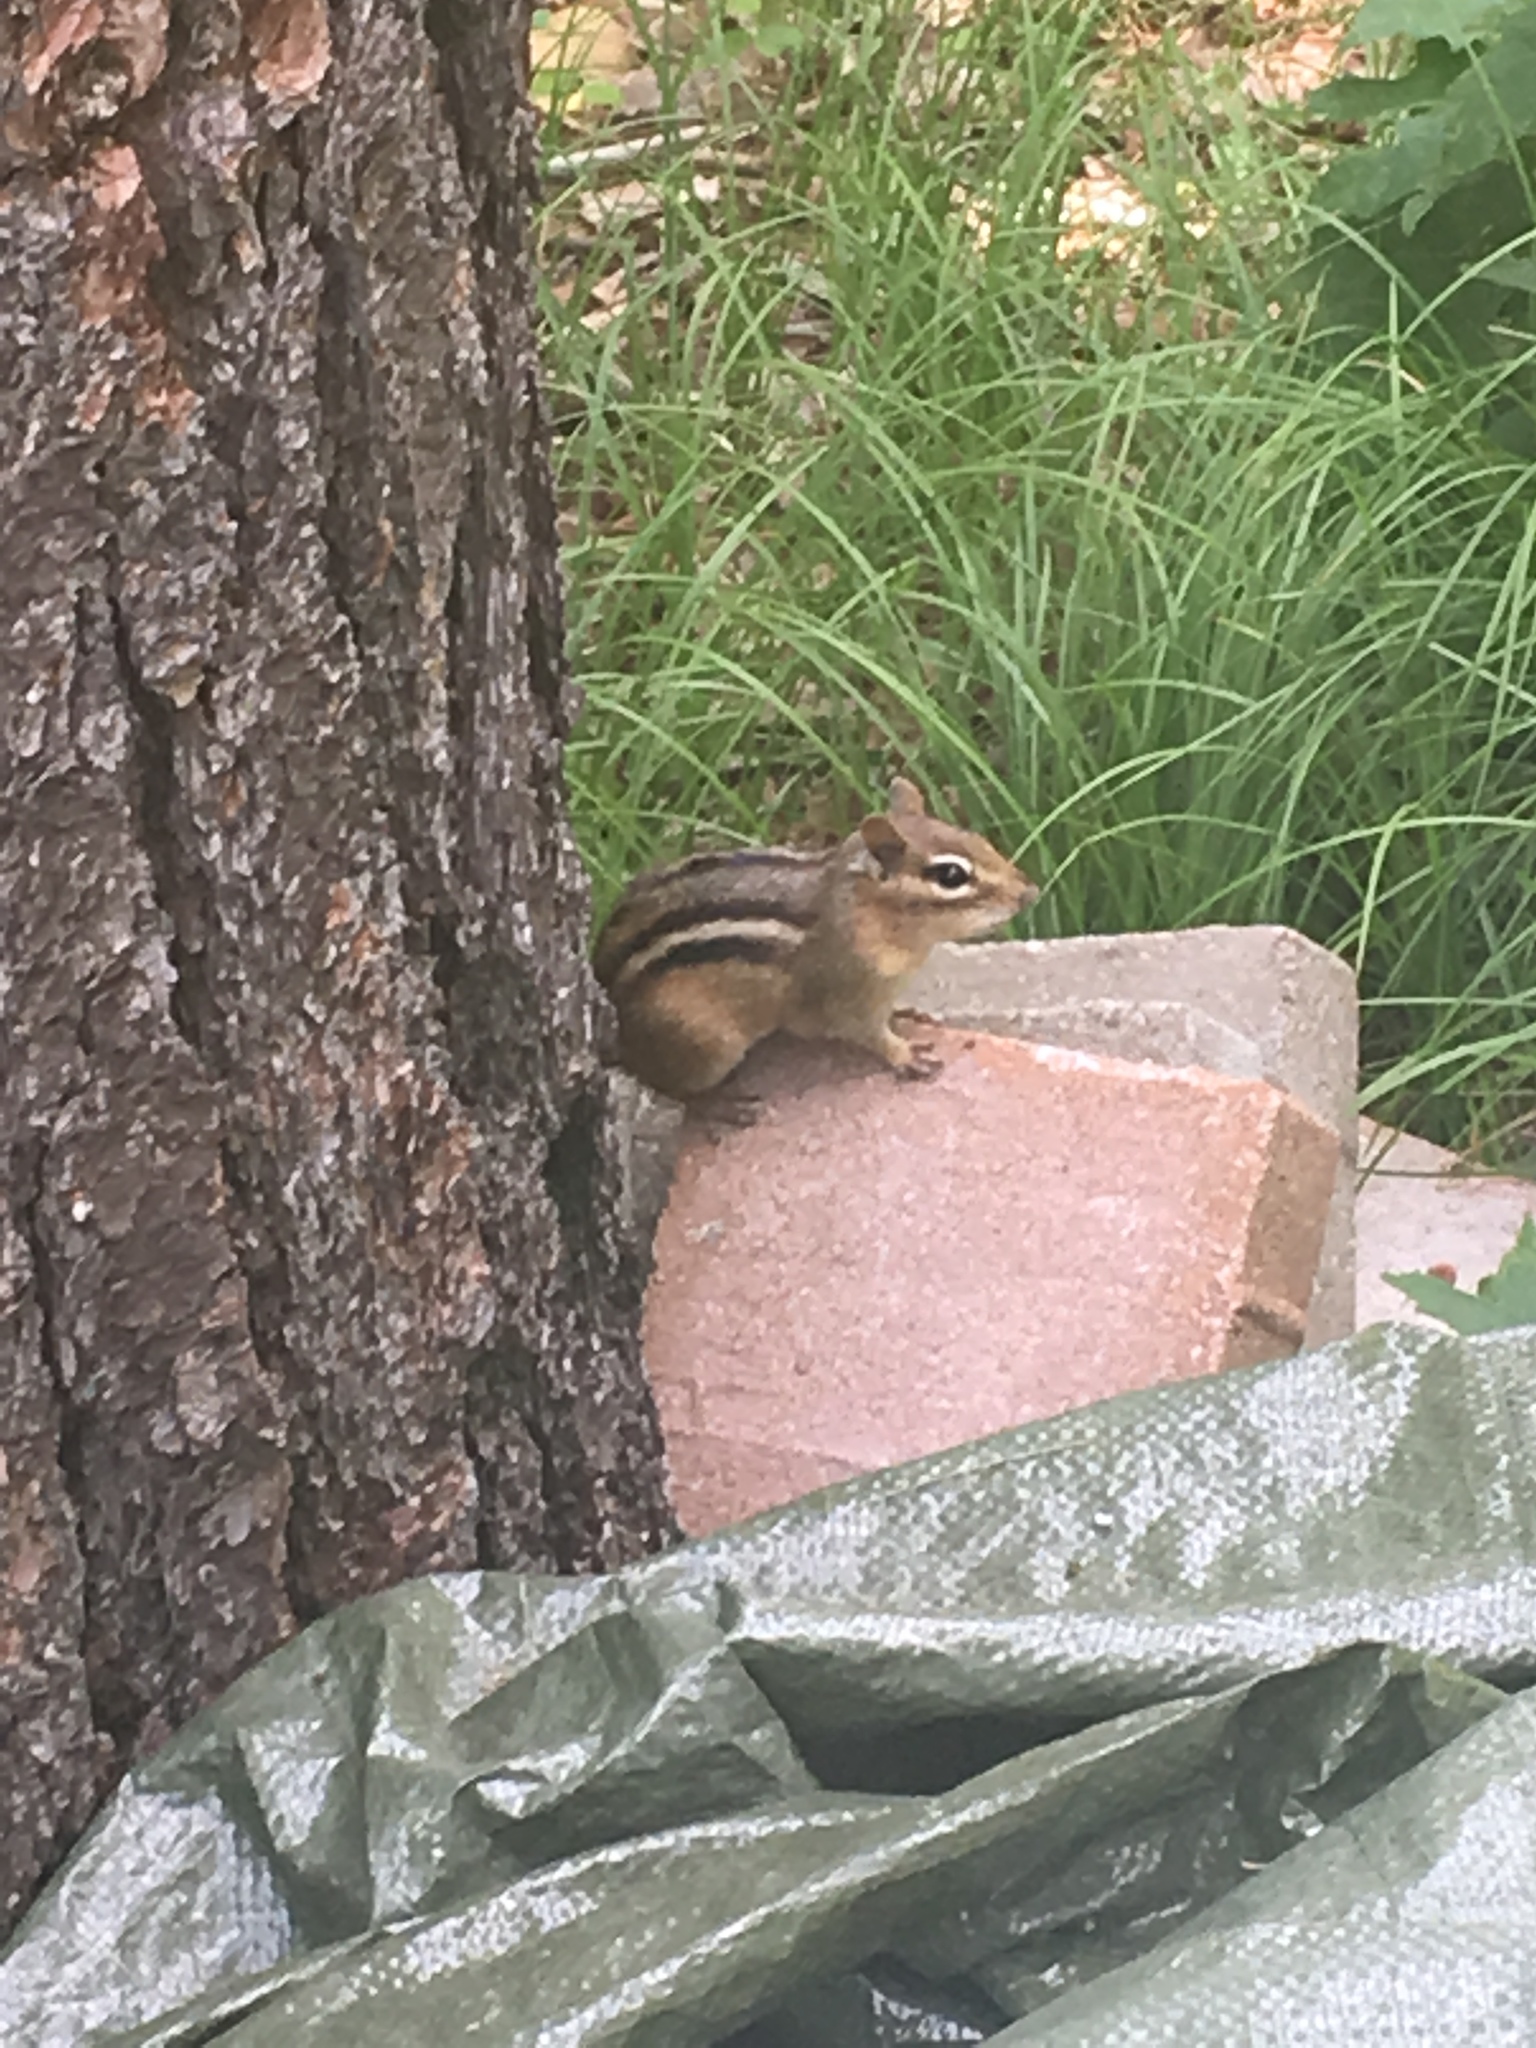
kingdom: Animalia
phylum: Chordata
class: Mammalia
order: Rodentia
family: Sciuridae
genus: Tamias
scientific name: Tamias striatus
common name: Eastern chipmunk
